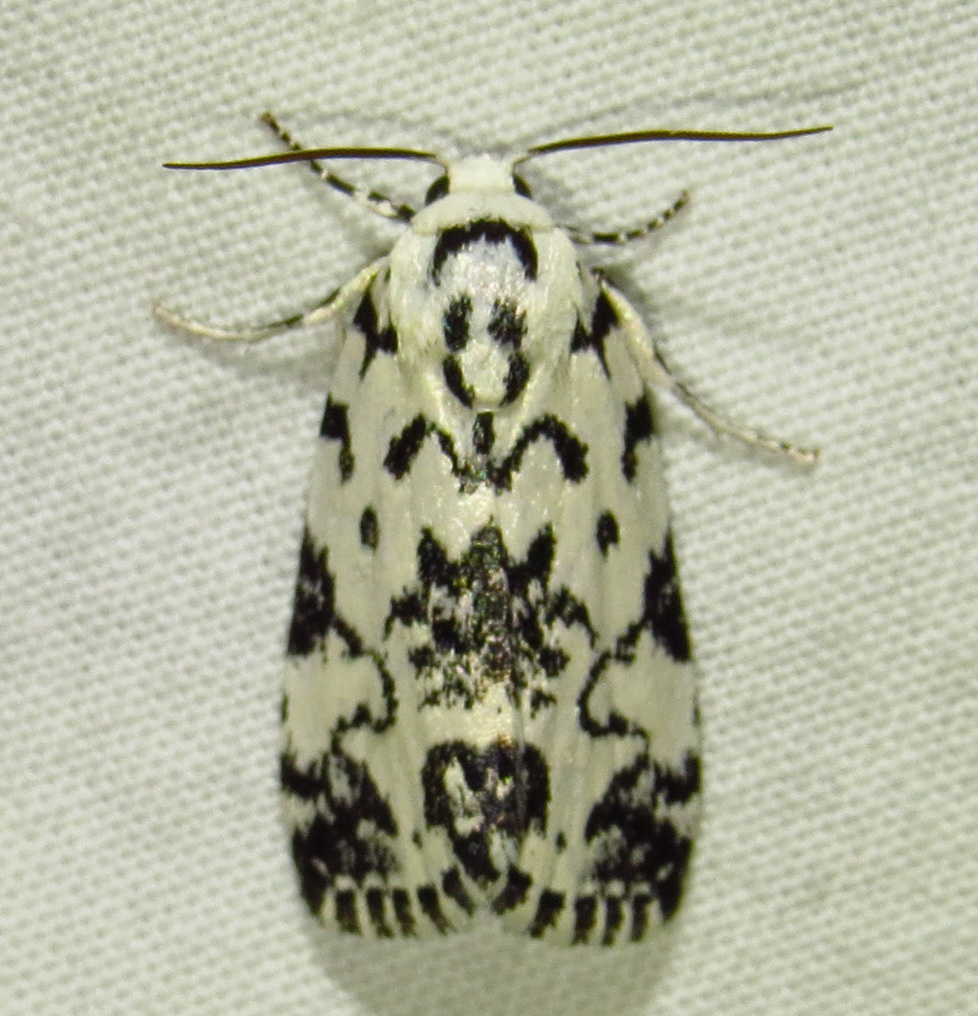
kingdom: Animalia
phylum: Arthropoda
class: Insecta
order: Lepidoptera
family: Noctuidae
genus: Polygrammate
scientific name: Polygrammate hebraeicum
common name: Hebrew moth
